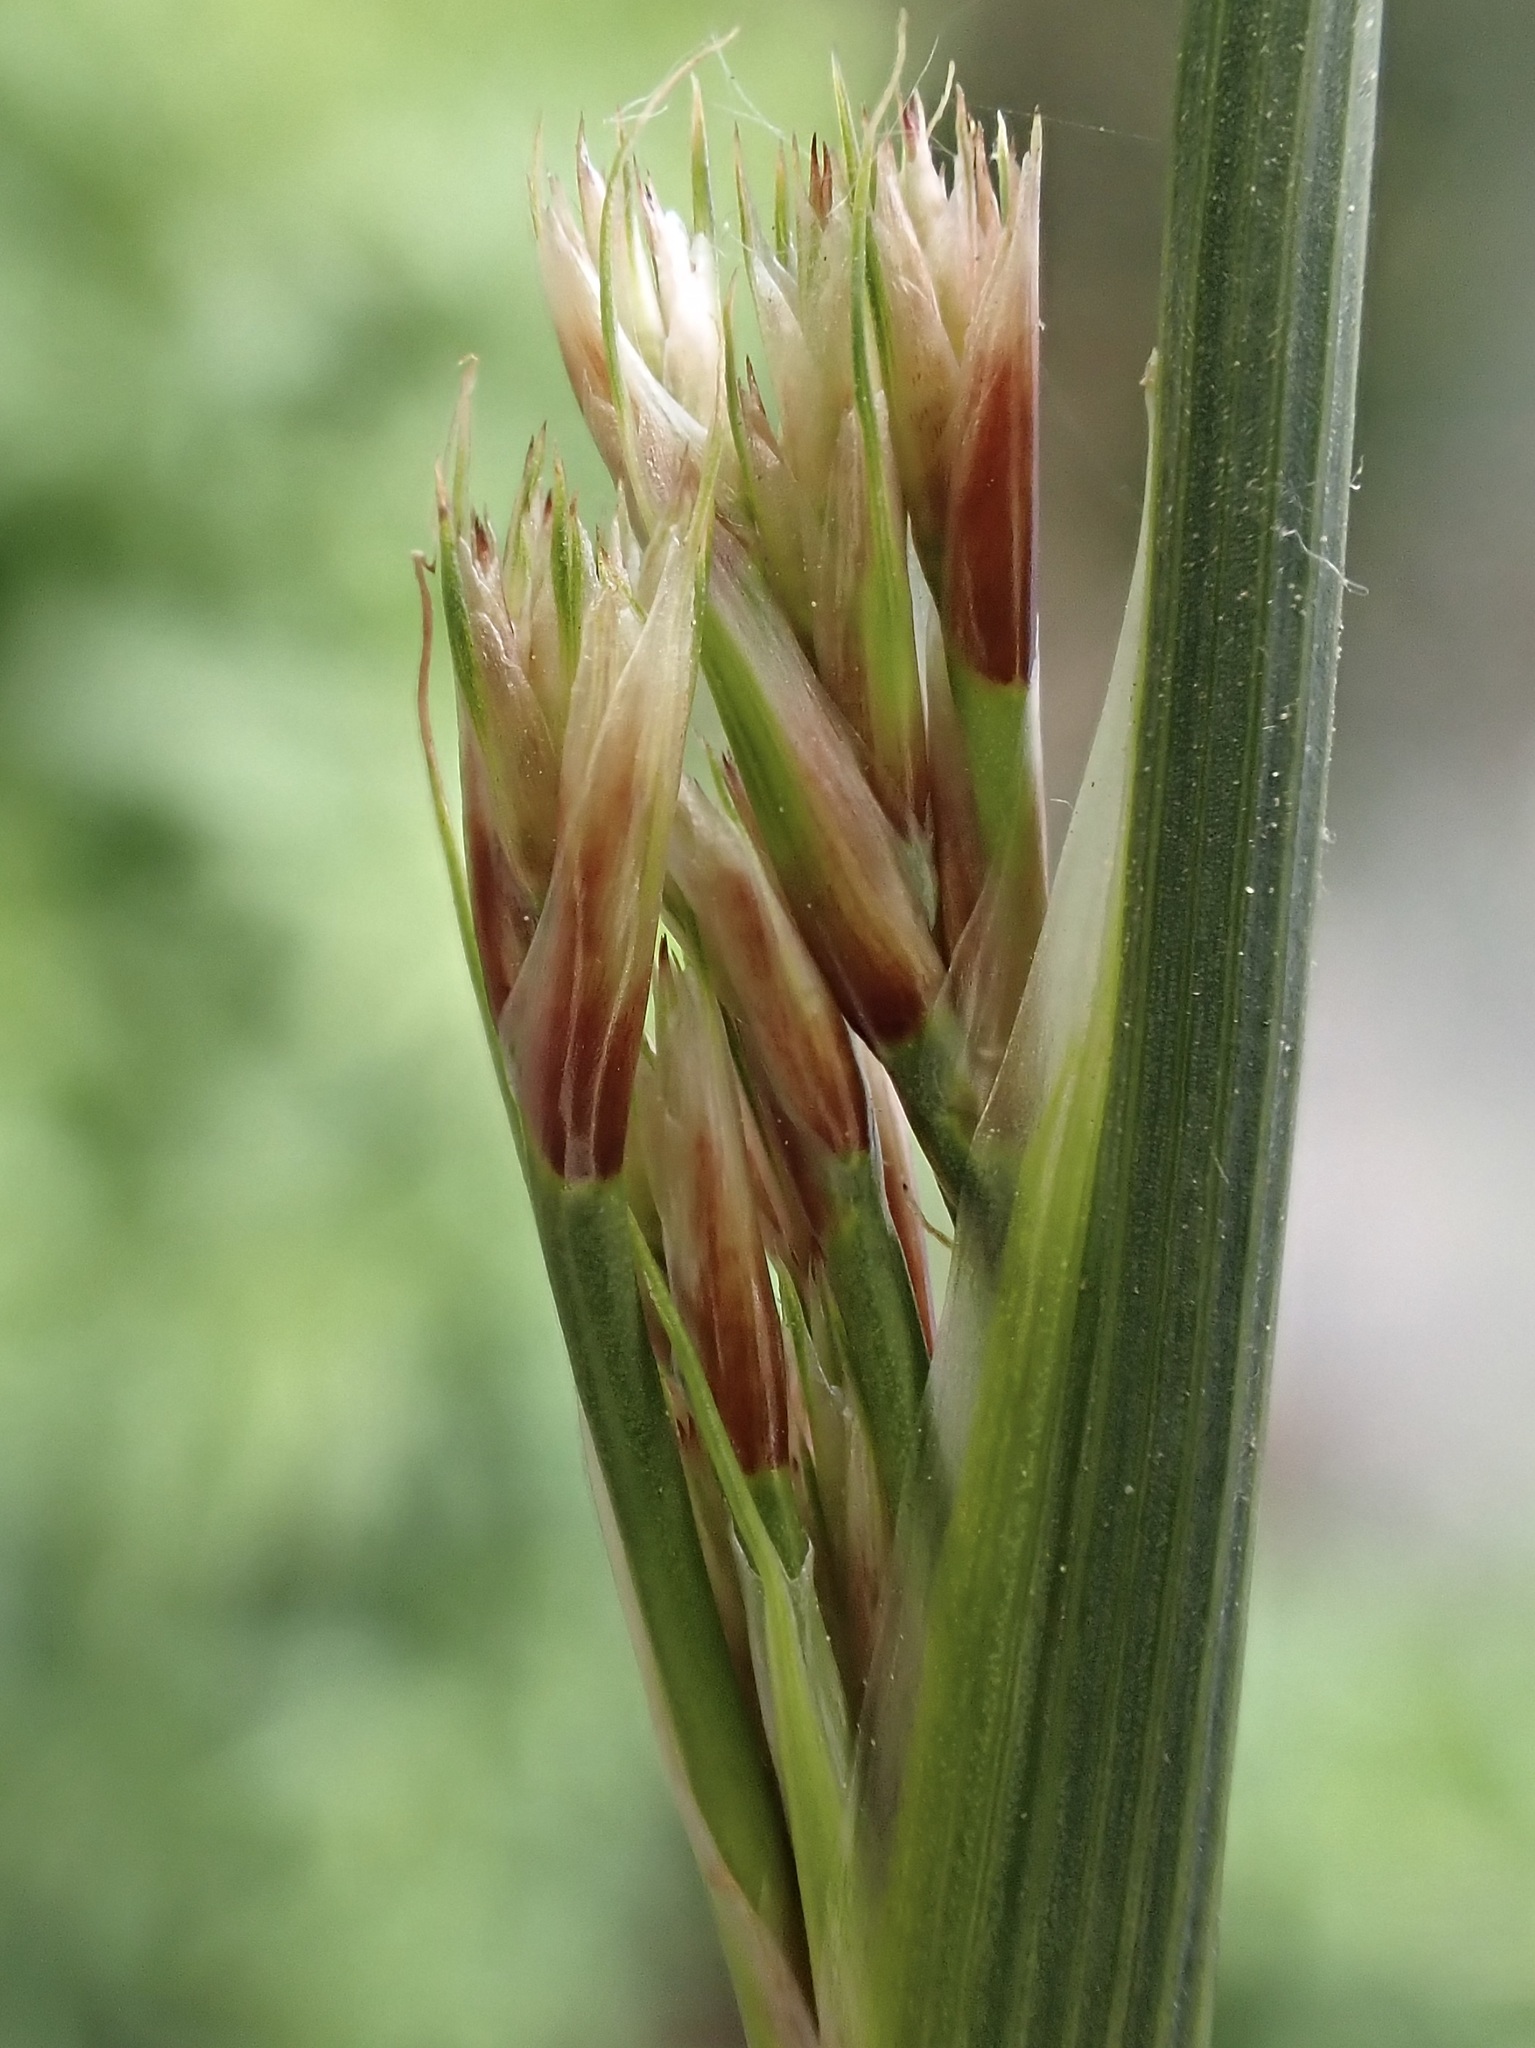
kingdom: Plantae
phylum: Tracheophyta
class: Liliopsida
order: Poales
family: Juncaceae
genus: Juncus
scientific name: Juncus inflexus
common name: Hard rush
